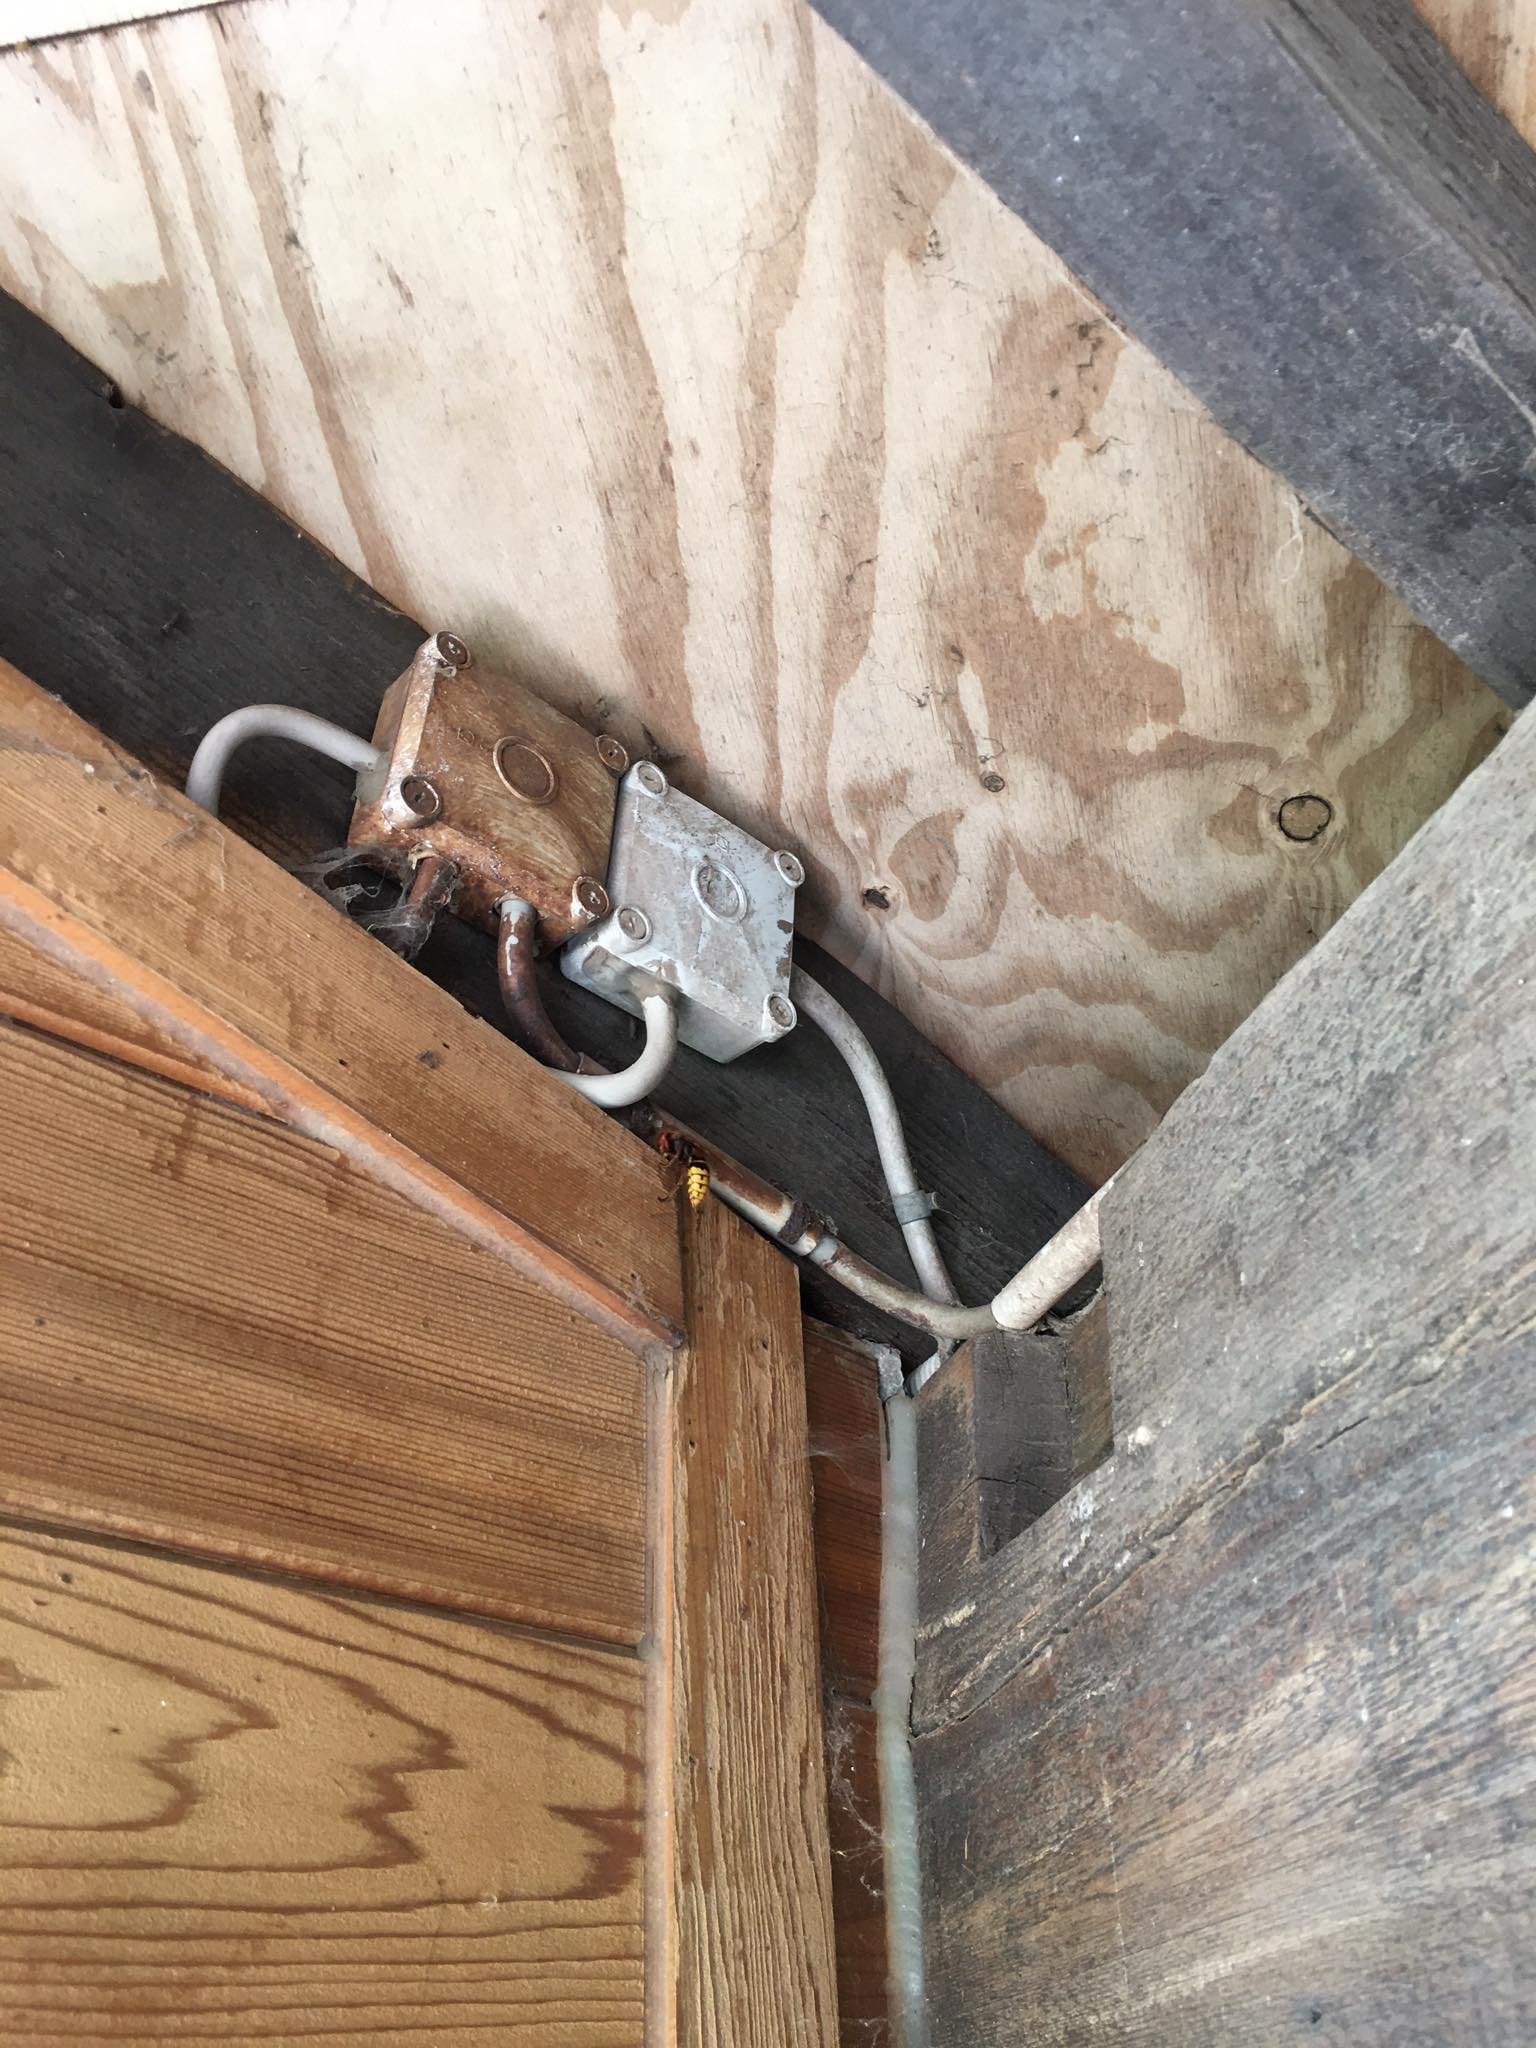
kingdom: Animalia
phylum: Arthropoda
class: Insecta
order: Hymenoptera
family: Vespidae
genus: Vespa
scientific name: Vespa crabro
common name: Hornet
